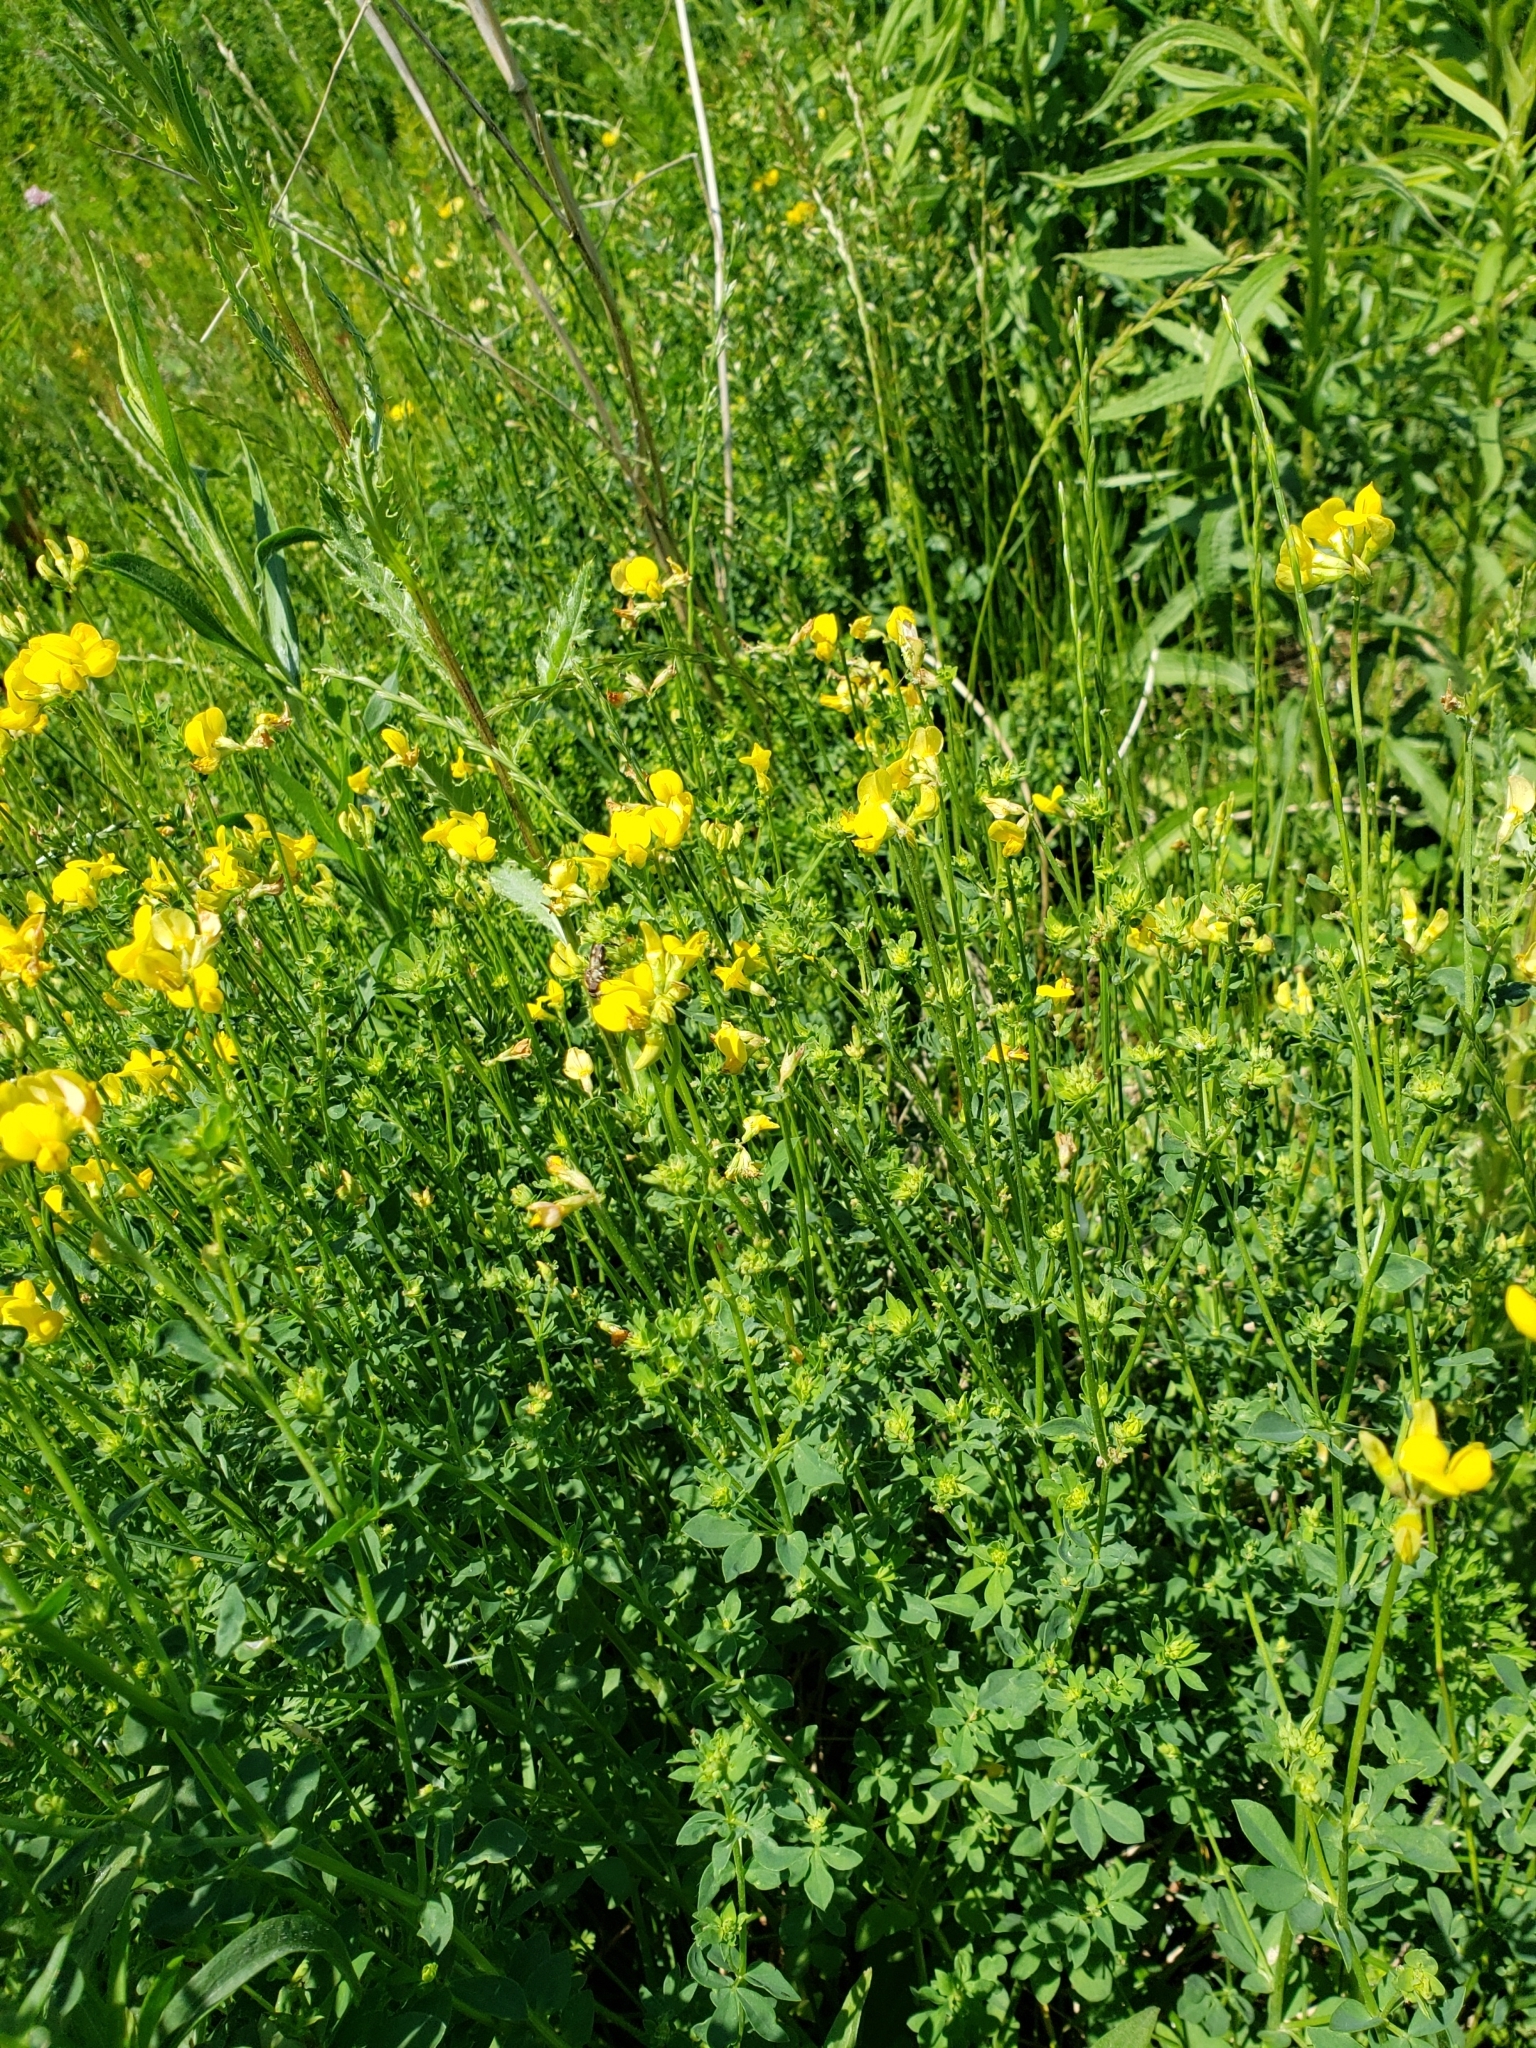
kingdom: Plantae
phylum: Tracheophyta
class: Magnoliopsida
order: Fabales
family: Fabaceae
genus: Lotus
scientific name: Lotus corniculatus
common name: Common bird's-foot-trefoil
